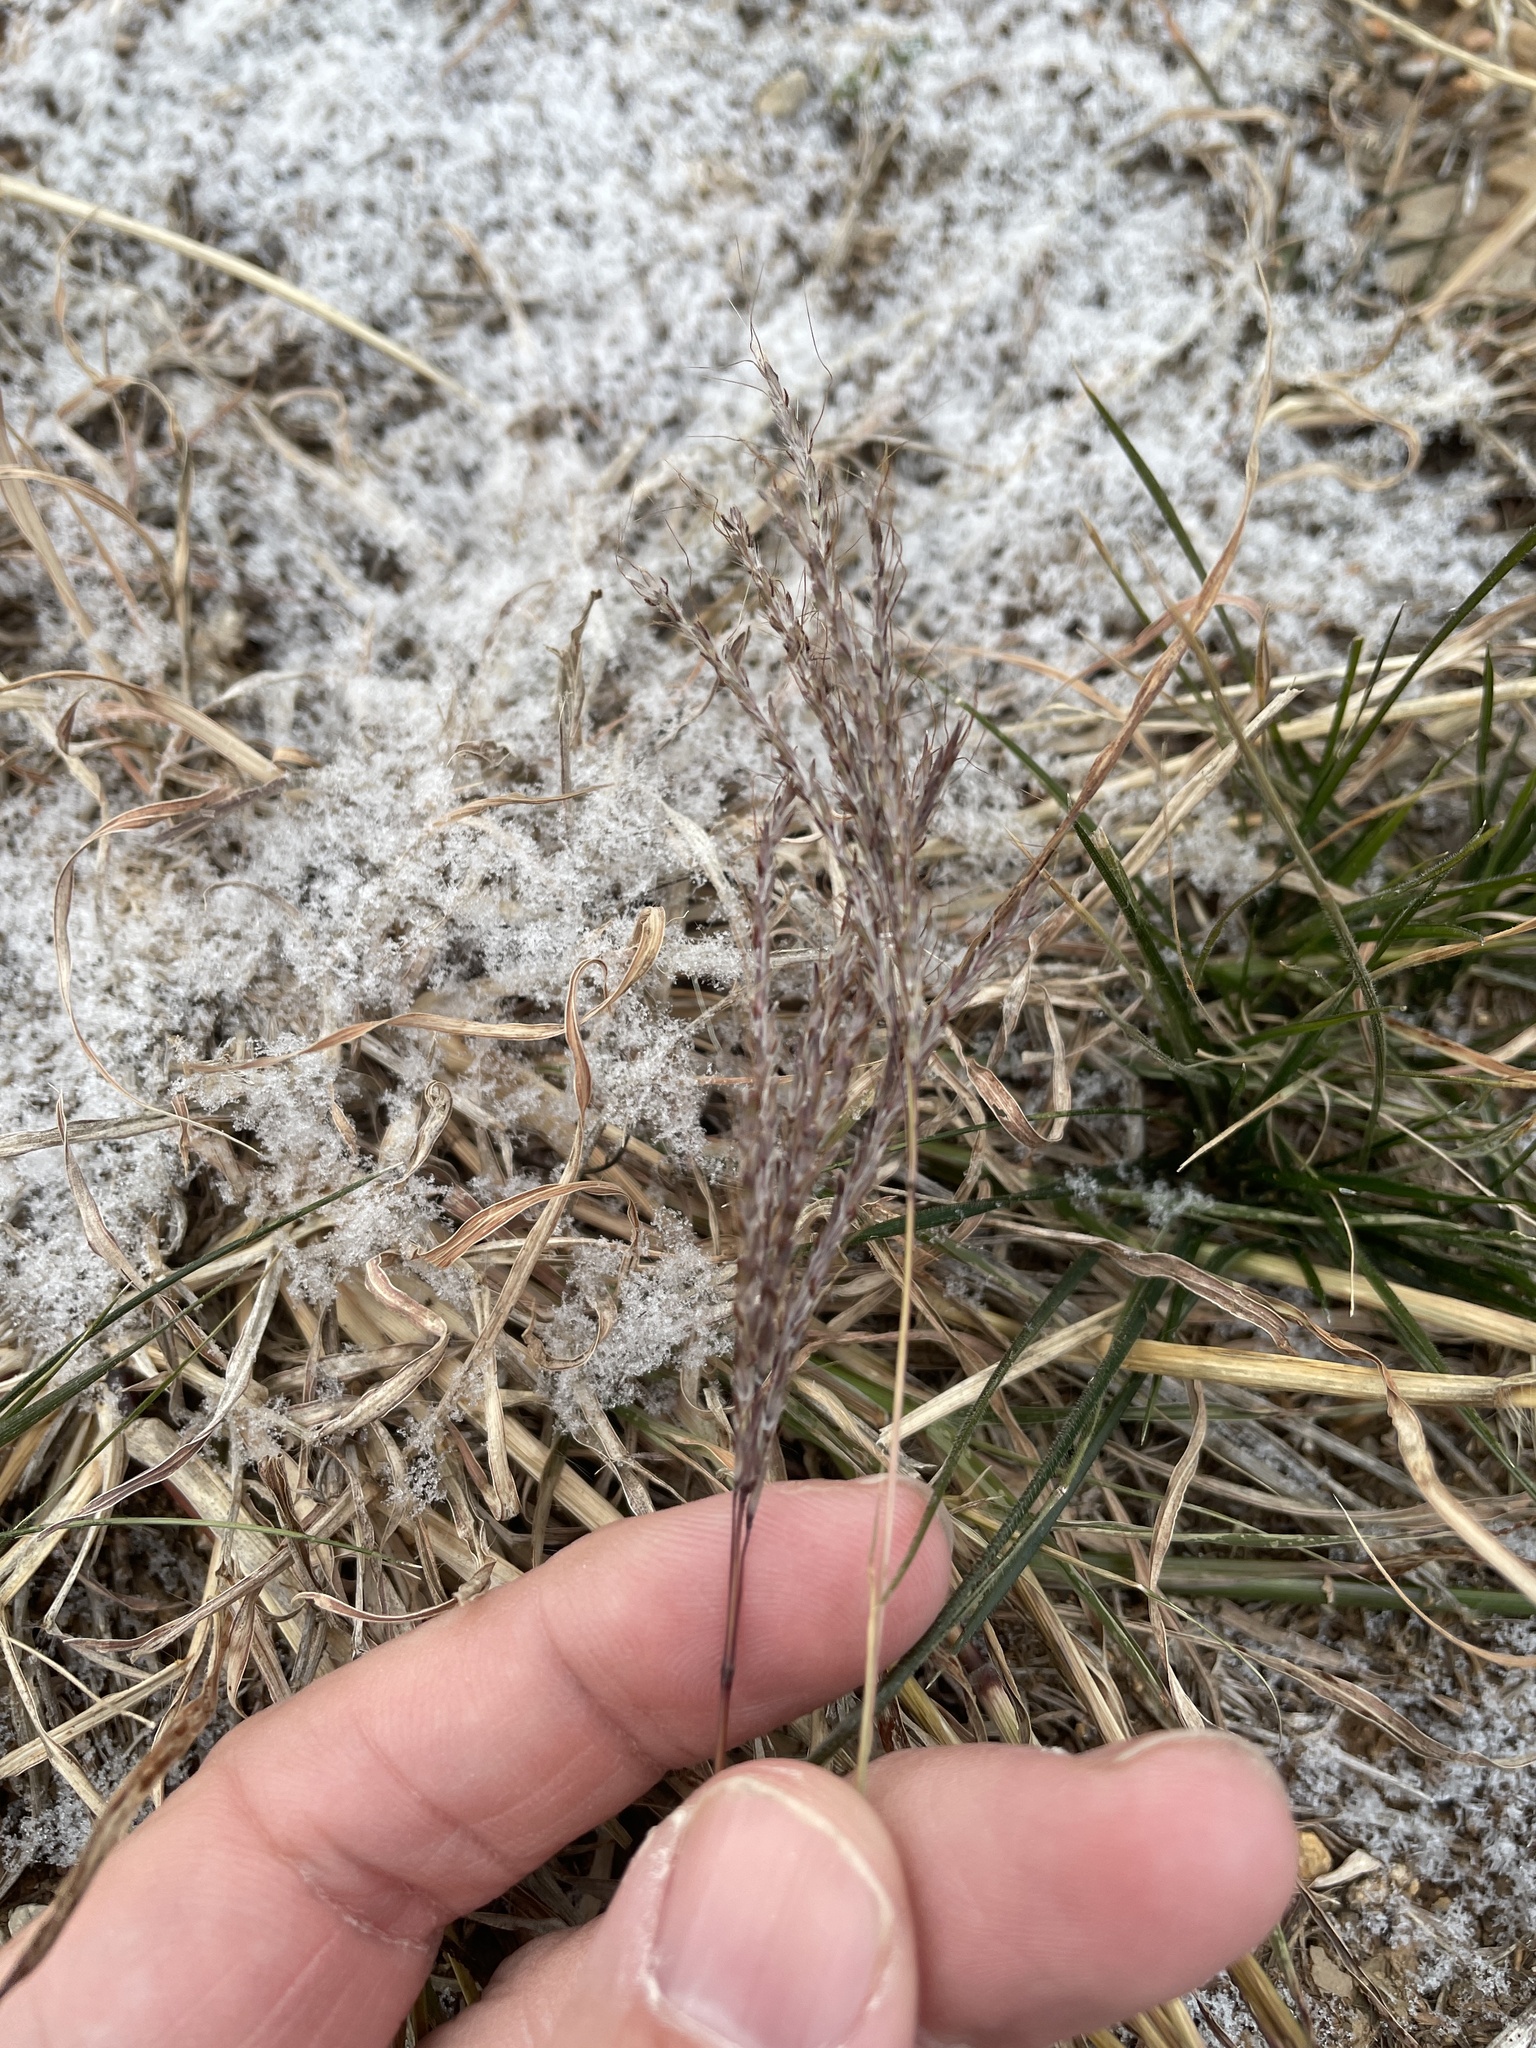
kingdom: Plantae
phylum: Tracheophyta
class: Liliopsida
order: Poales
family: Poaceae
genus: Bothriochloa
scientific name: Bothriochloa ischaemum
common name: Yellow bluestem
